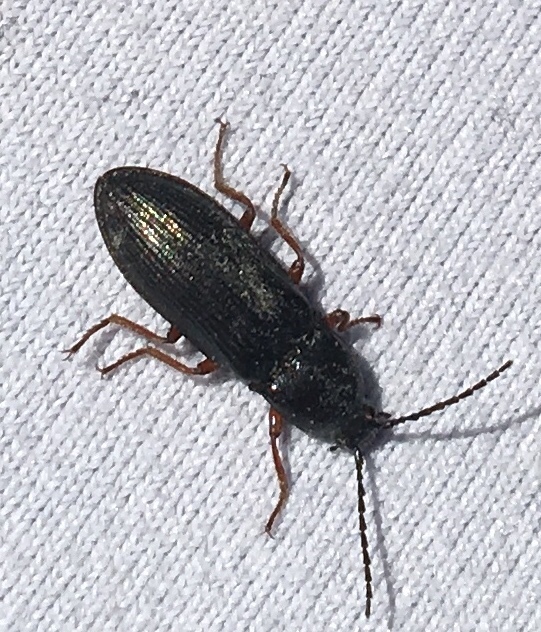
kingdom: Animalia
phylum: Arthropoda
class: Insecta
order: Coleoptera
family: Elateridae
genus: Selatosomus
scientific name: Selatosomus melancholicus
